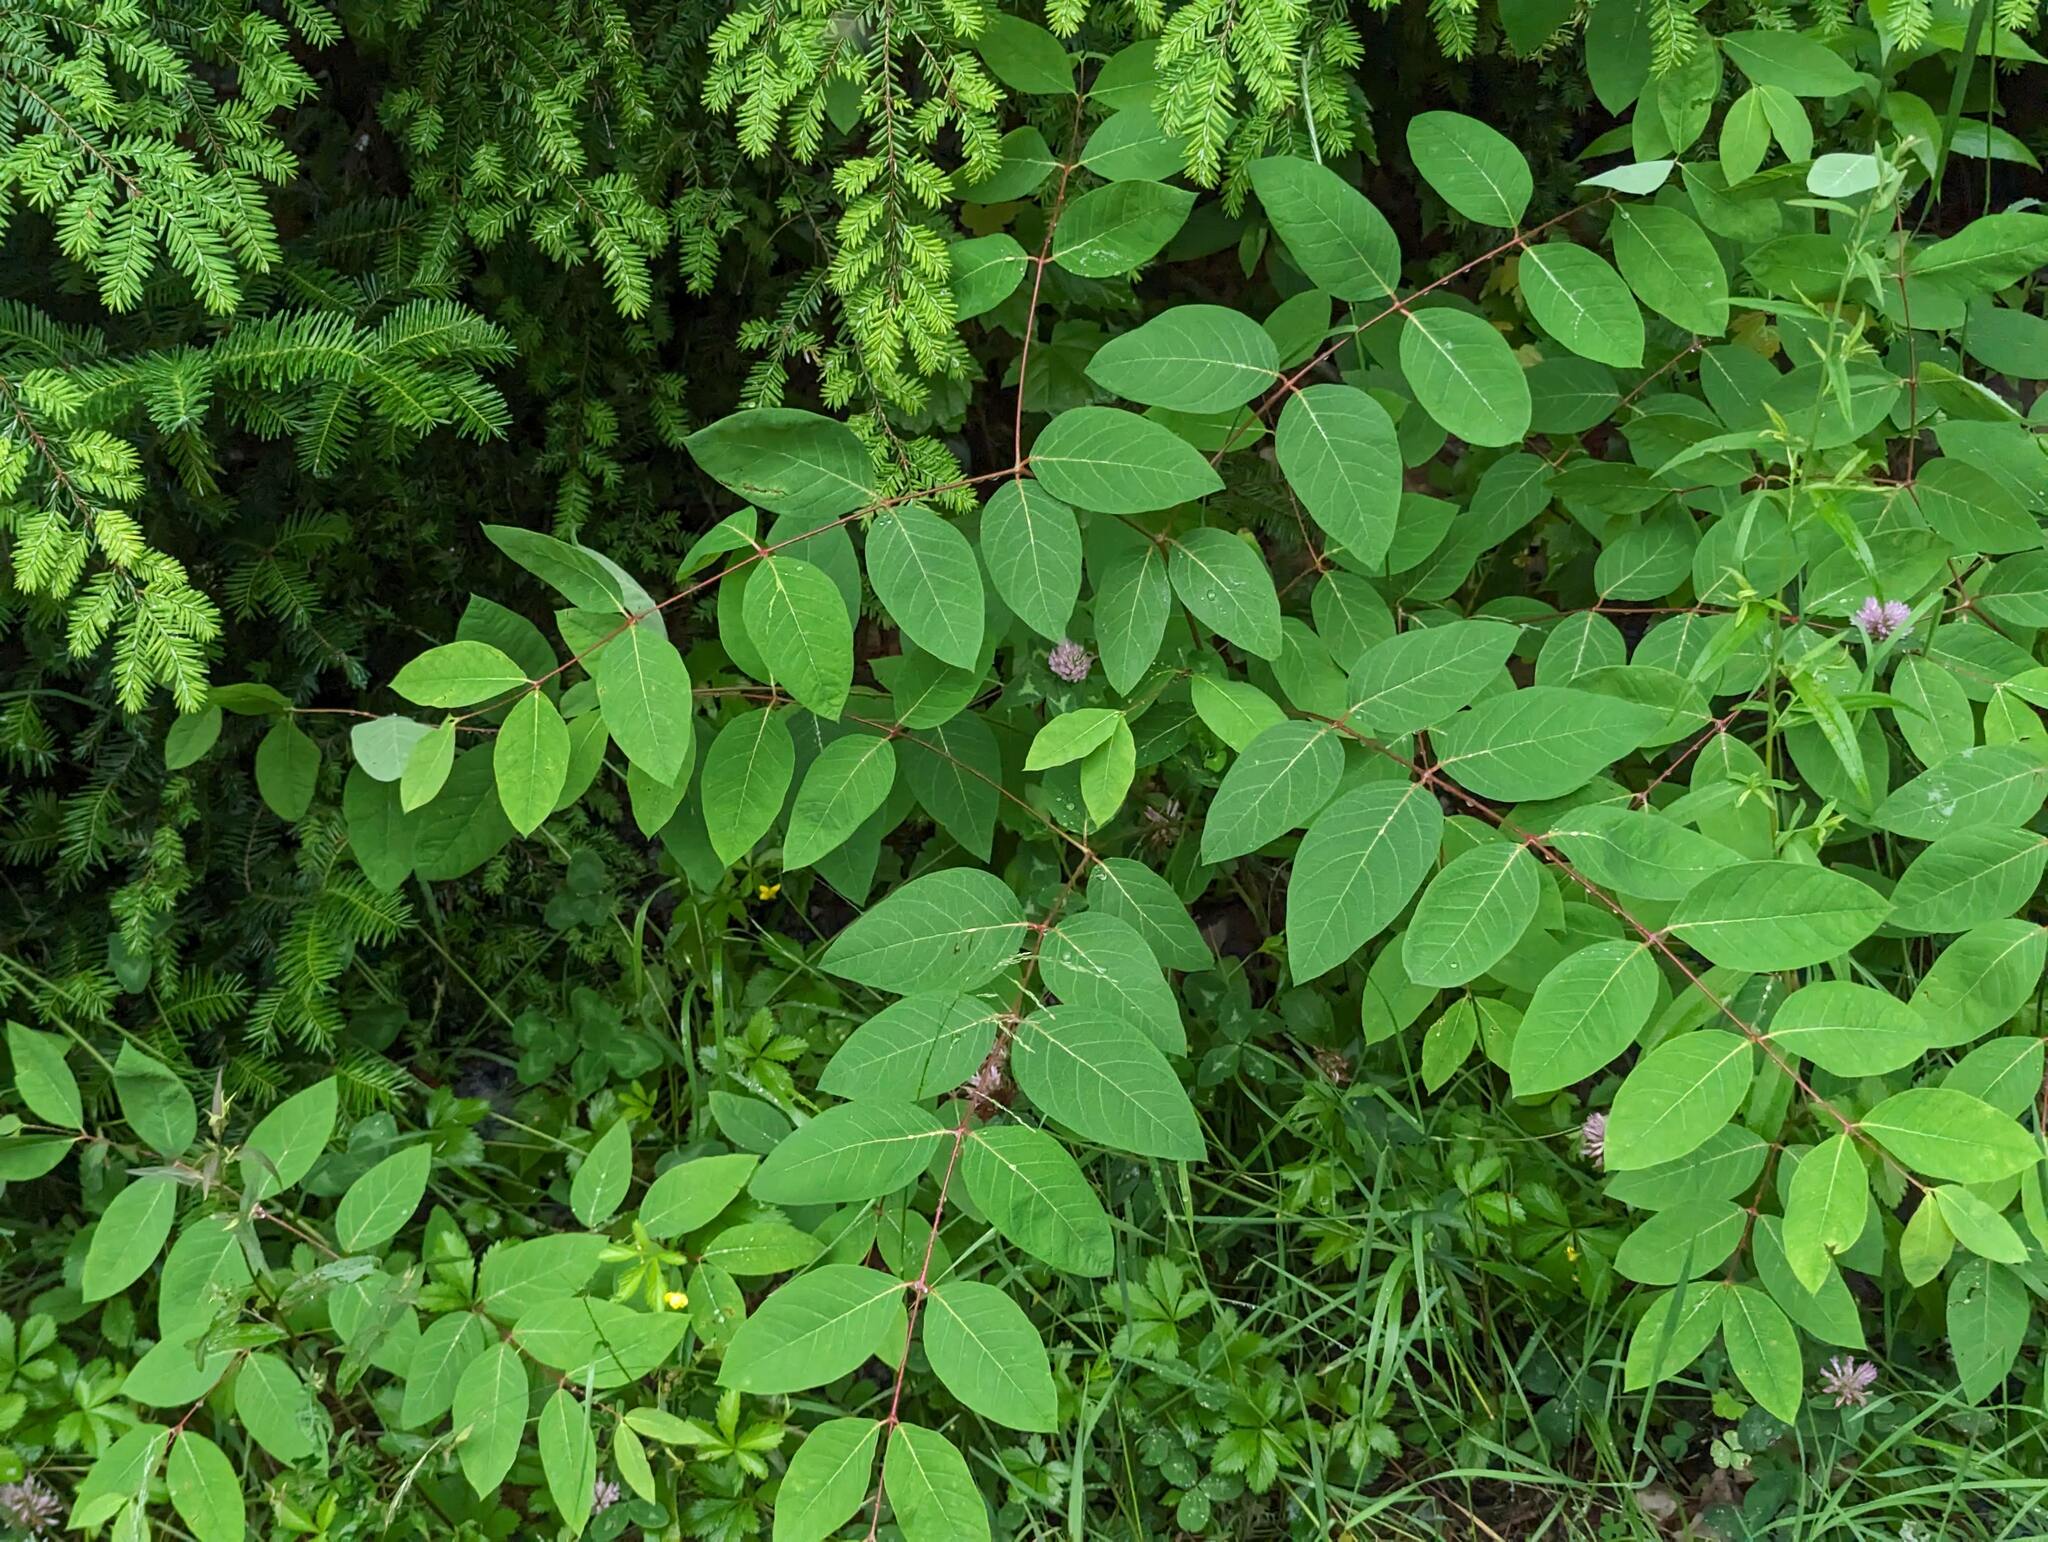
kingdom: Plantae
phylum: Tracheophyta
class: Magnoliopsida
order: Gentianales
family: Apocynaceae
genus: Apocynum
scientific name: Apocynum androsaemifolium
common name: Spreading dogbane
